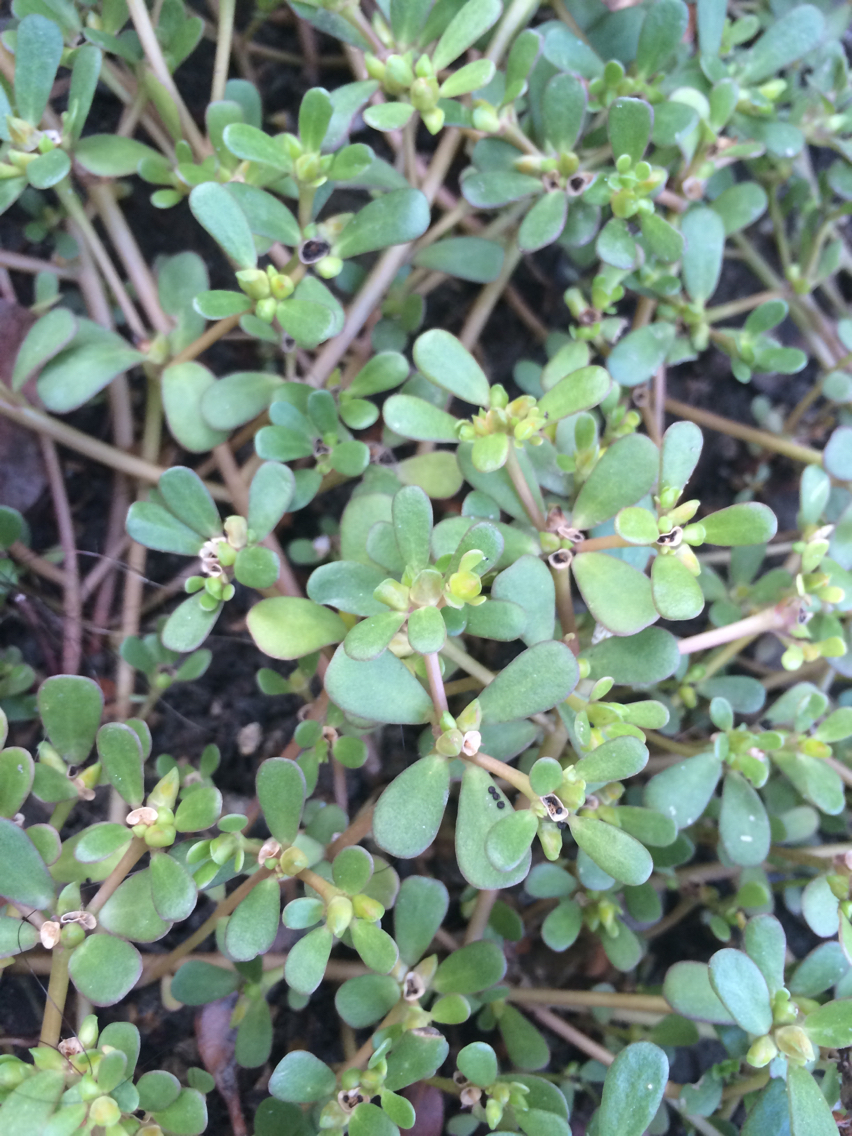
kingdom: Plantae
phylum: Tracheophyta
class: Magnoliopsida
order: Caryophyllales
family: Portulacaceae
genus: Portulaca
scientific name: Portulaca oleracea
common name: Common purslane
